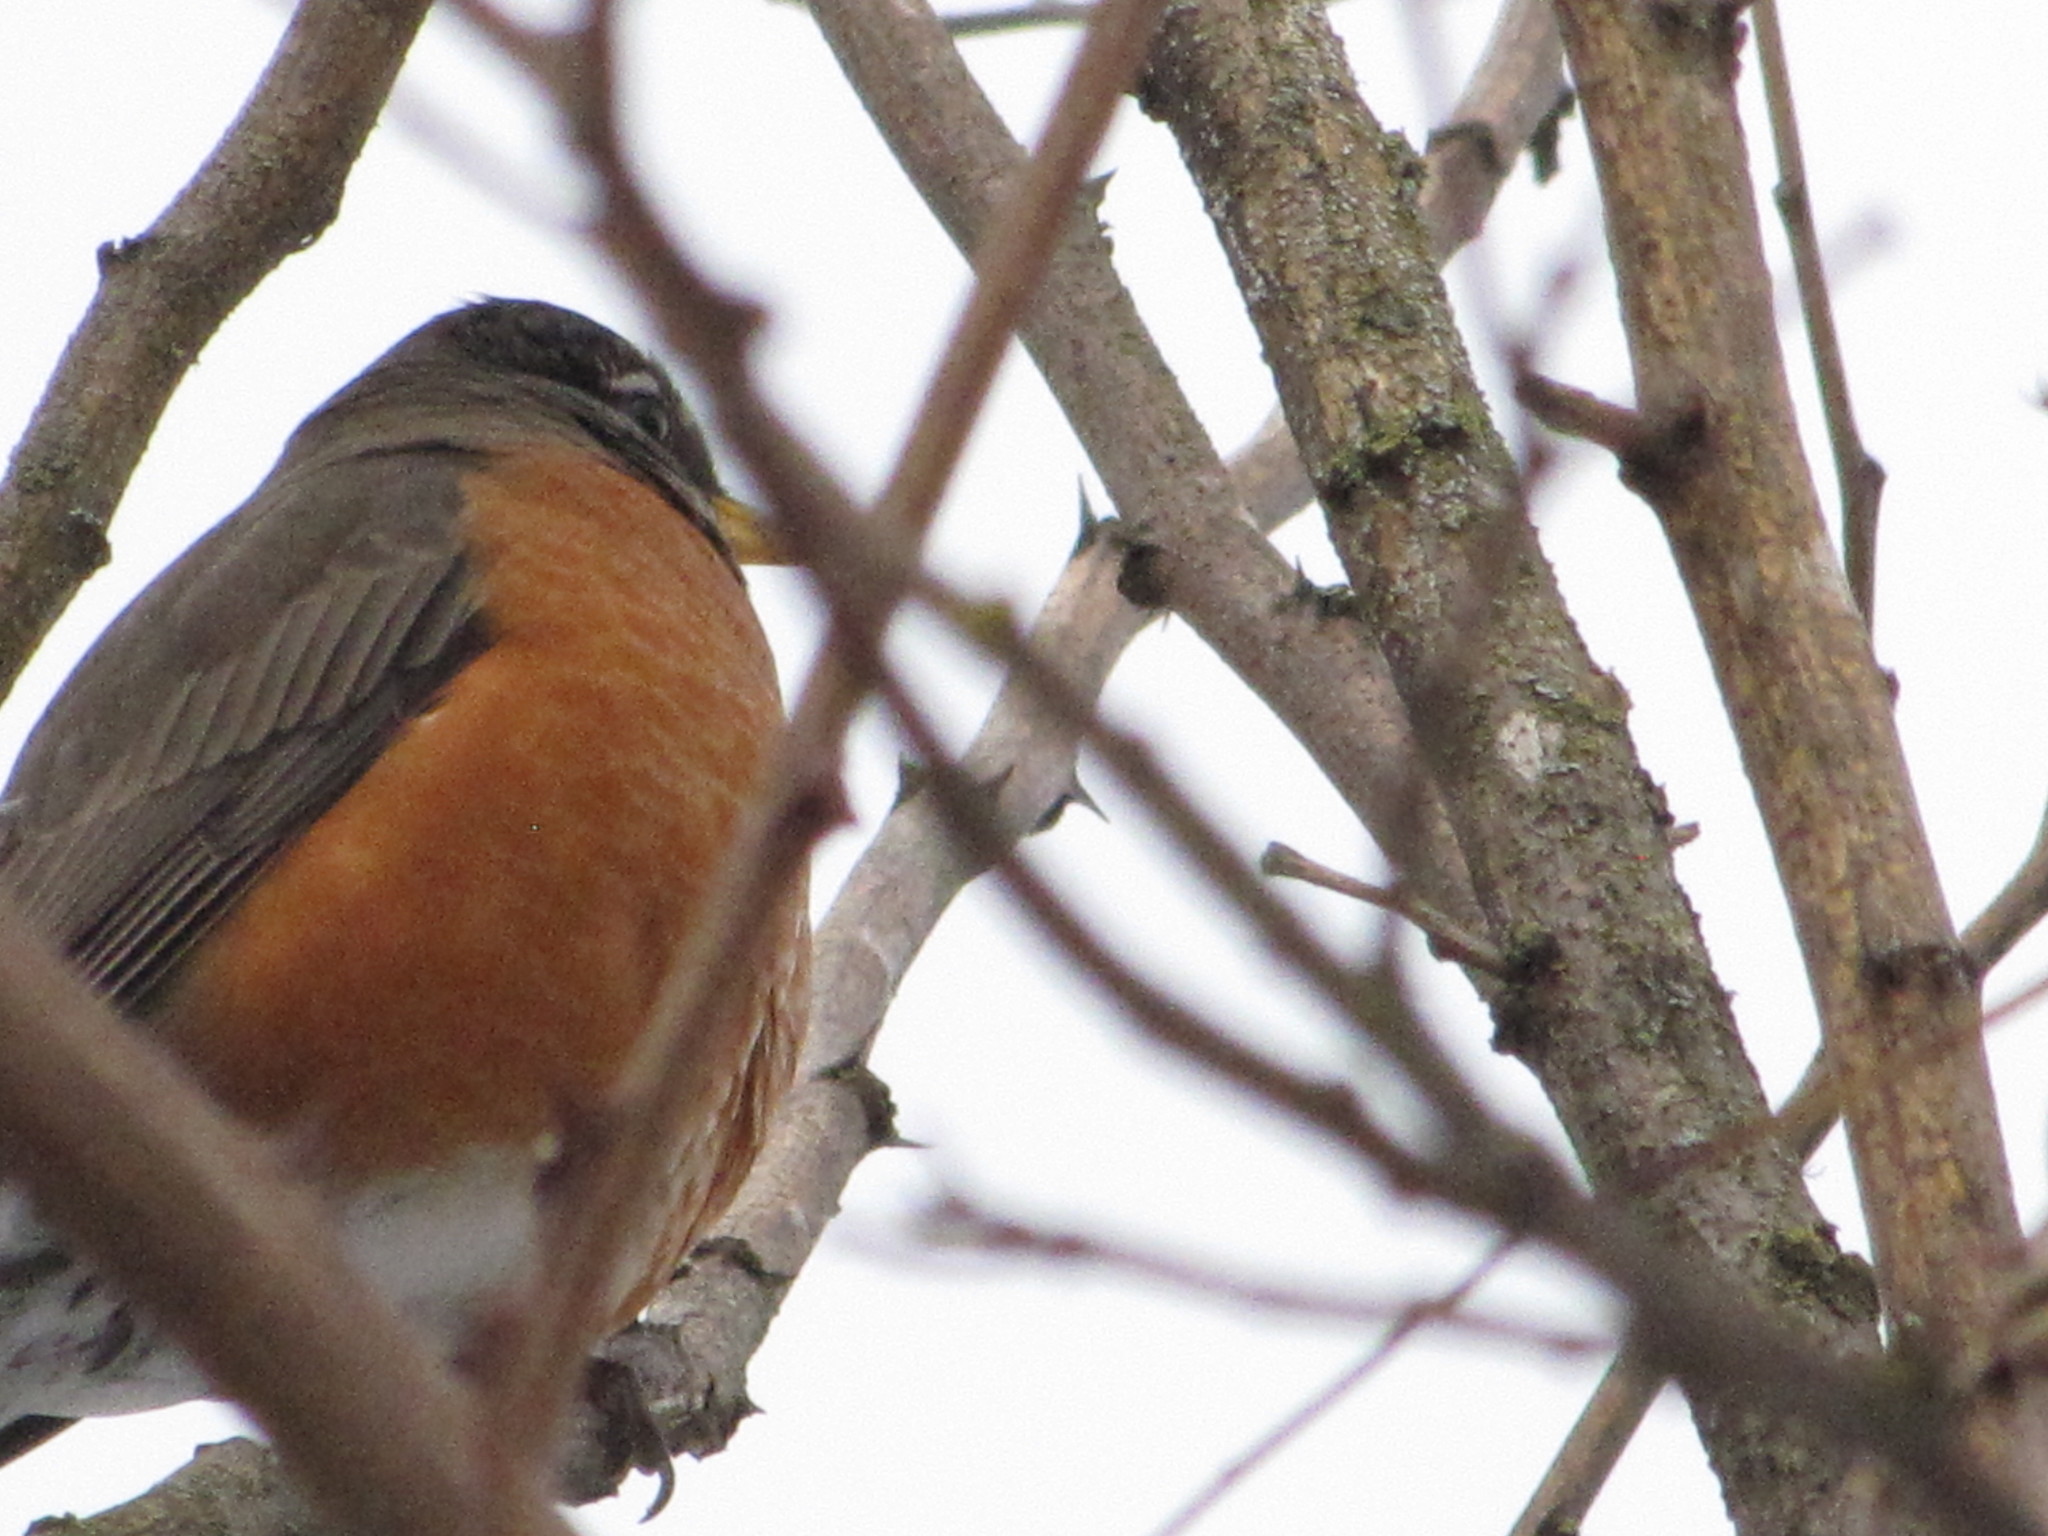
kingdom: Animalia
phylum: Chordata
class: Aves
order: Passeriformes
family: Turdidae
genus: Turdus
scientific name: Turdus migratorius
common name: American robin
